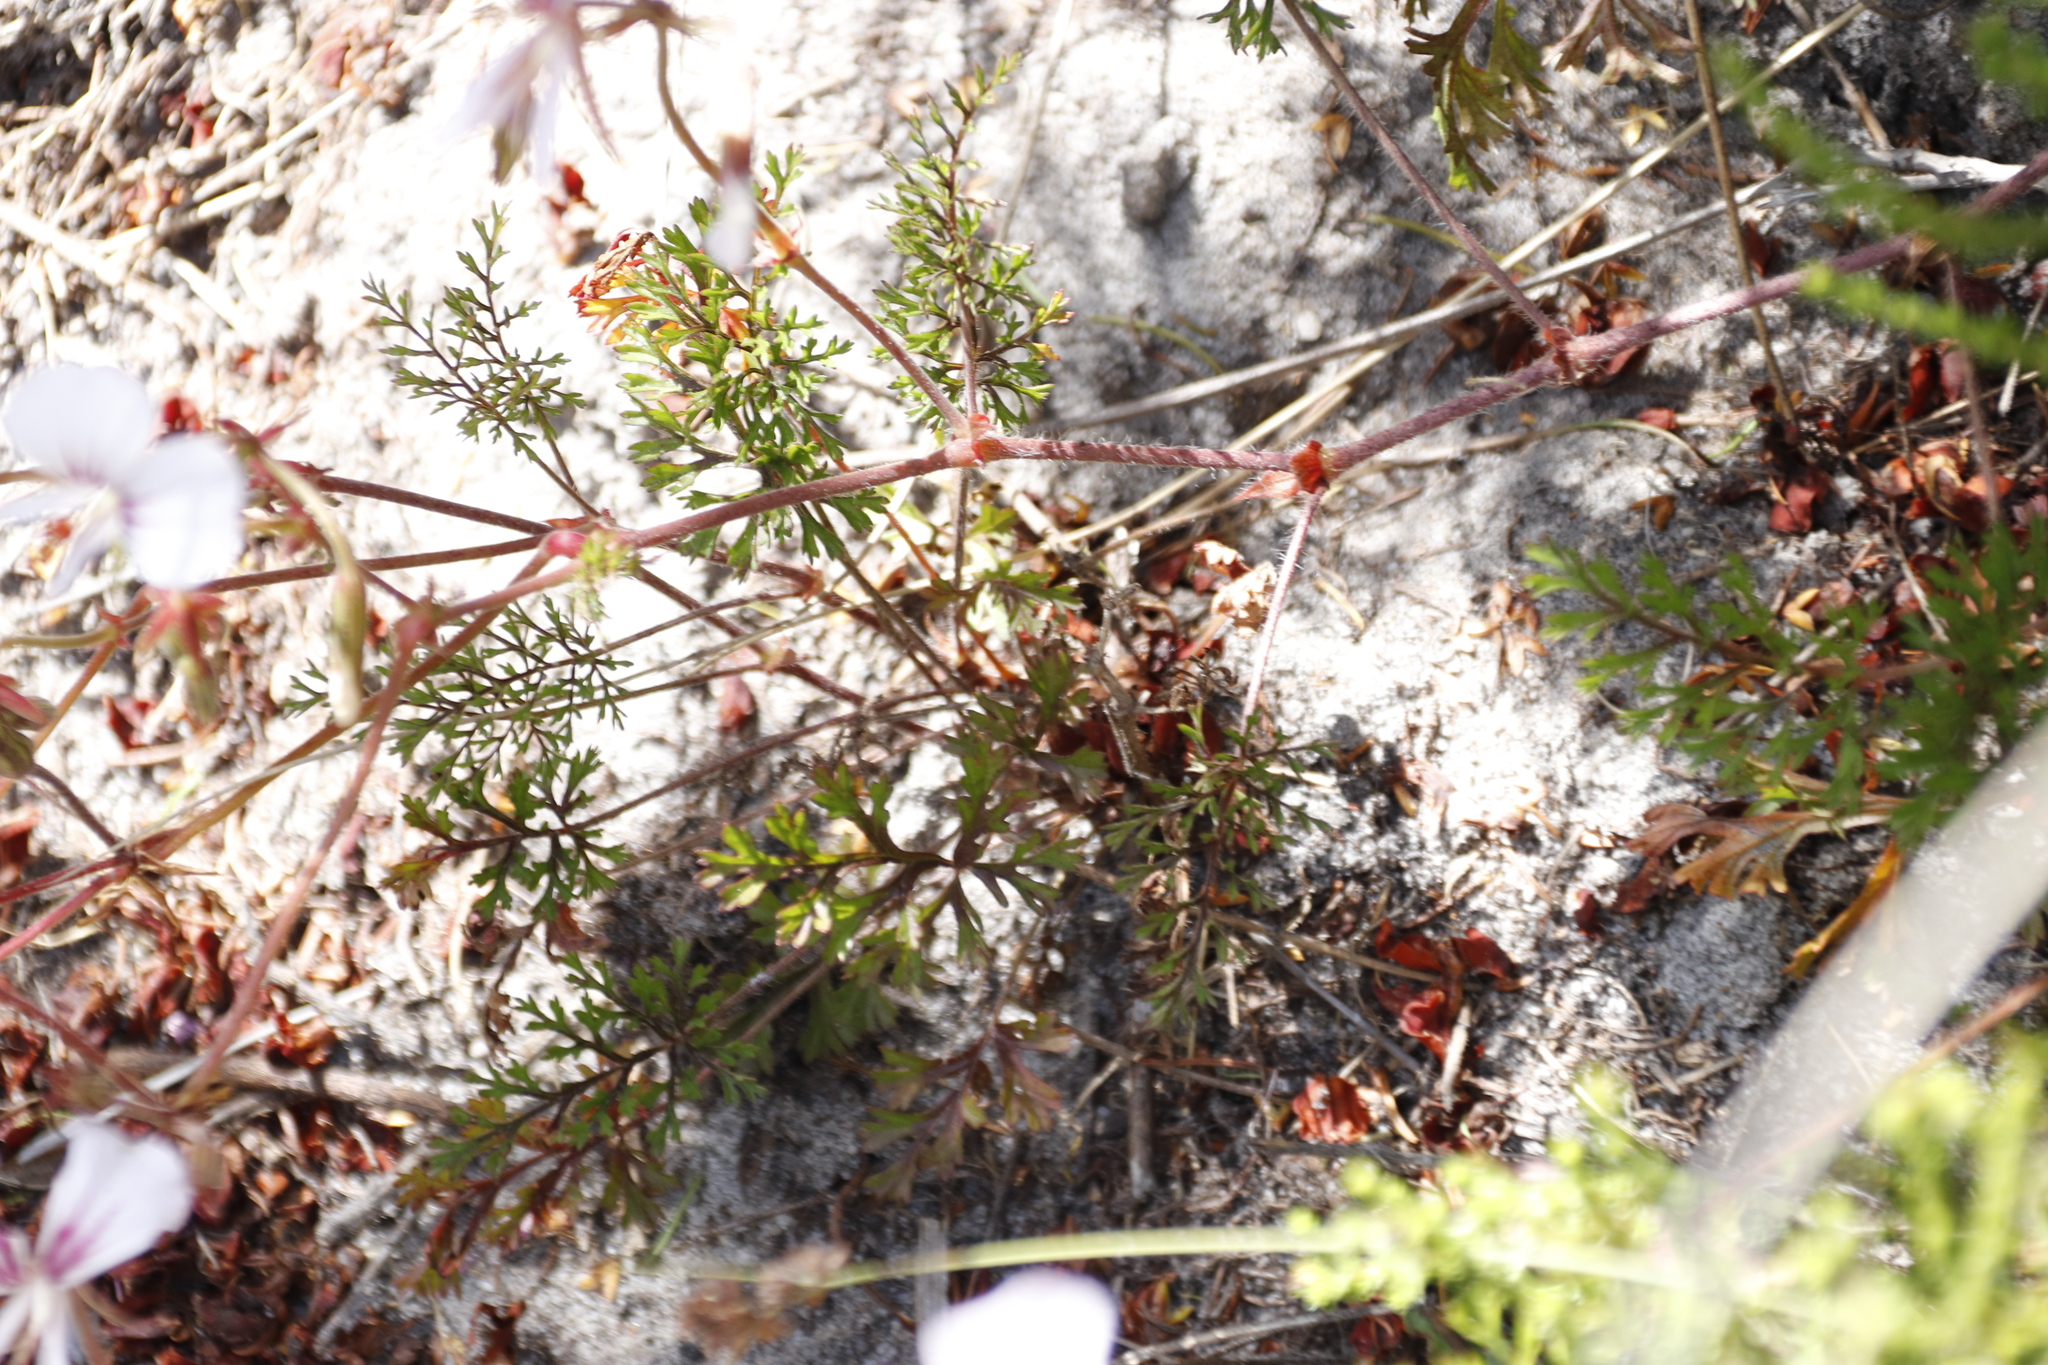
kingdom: Plantae
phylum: Tracheophyta
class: Magnoliopsida
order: Geraniales
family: Geraniaceae
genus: Pelargonium
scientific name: Pelargonium longicaule
